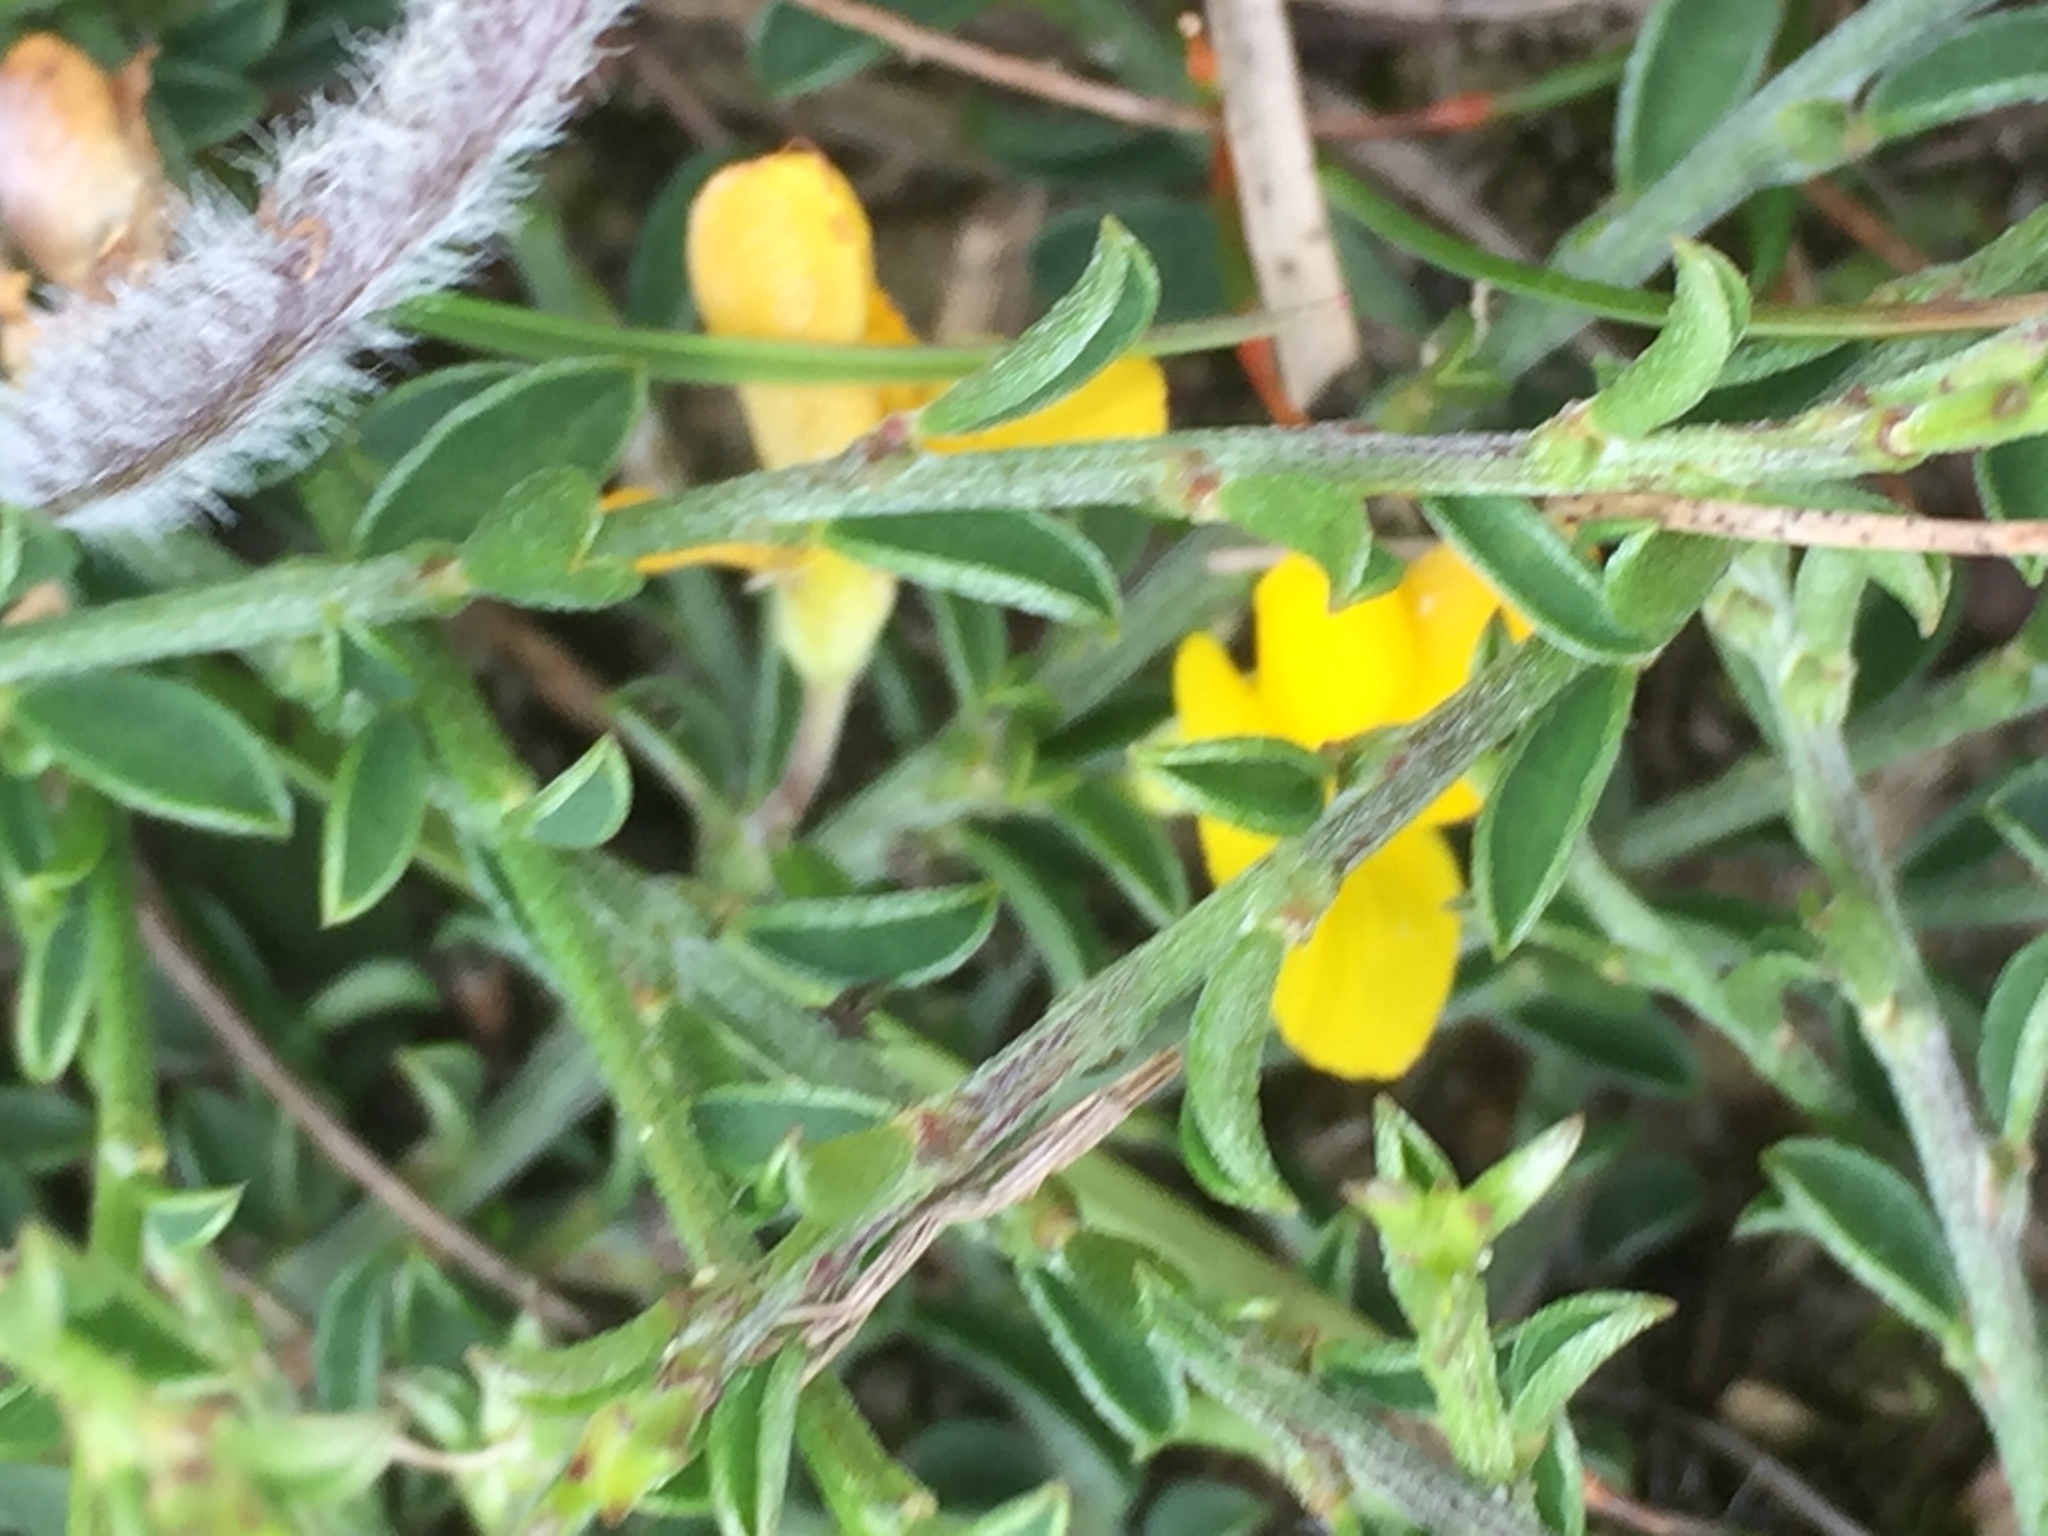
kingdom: Plantae
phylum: Tracheophyta
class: Magnoliopsida
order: Fabales
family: Fabaceae
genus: Genista
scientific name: Genista pilosa
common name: Hairy greenweed
